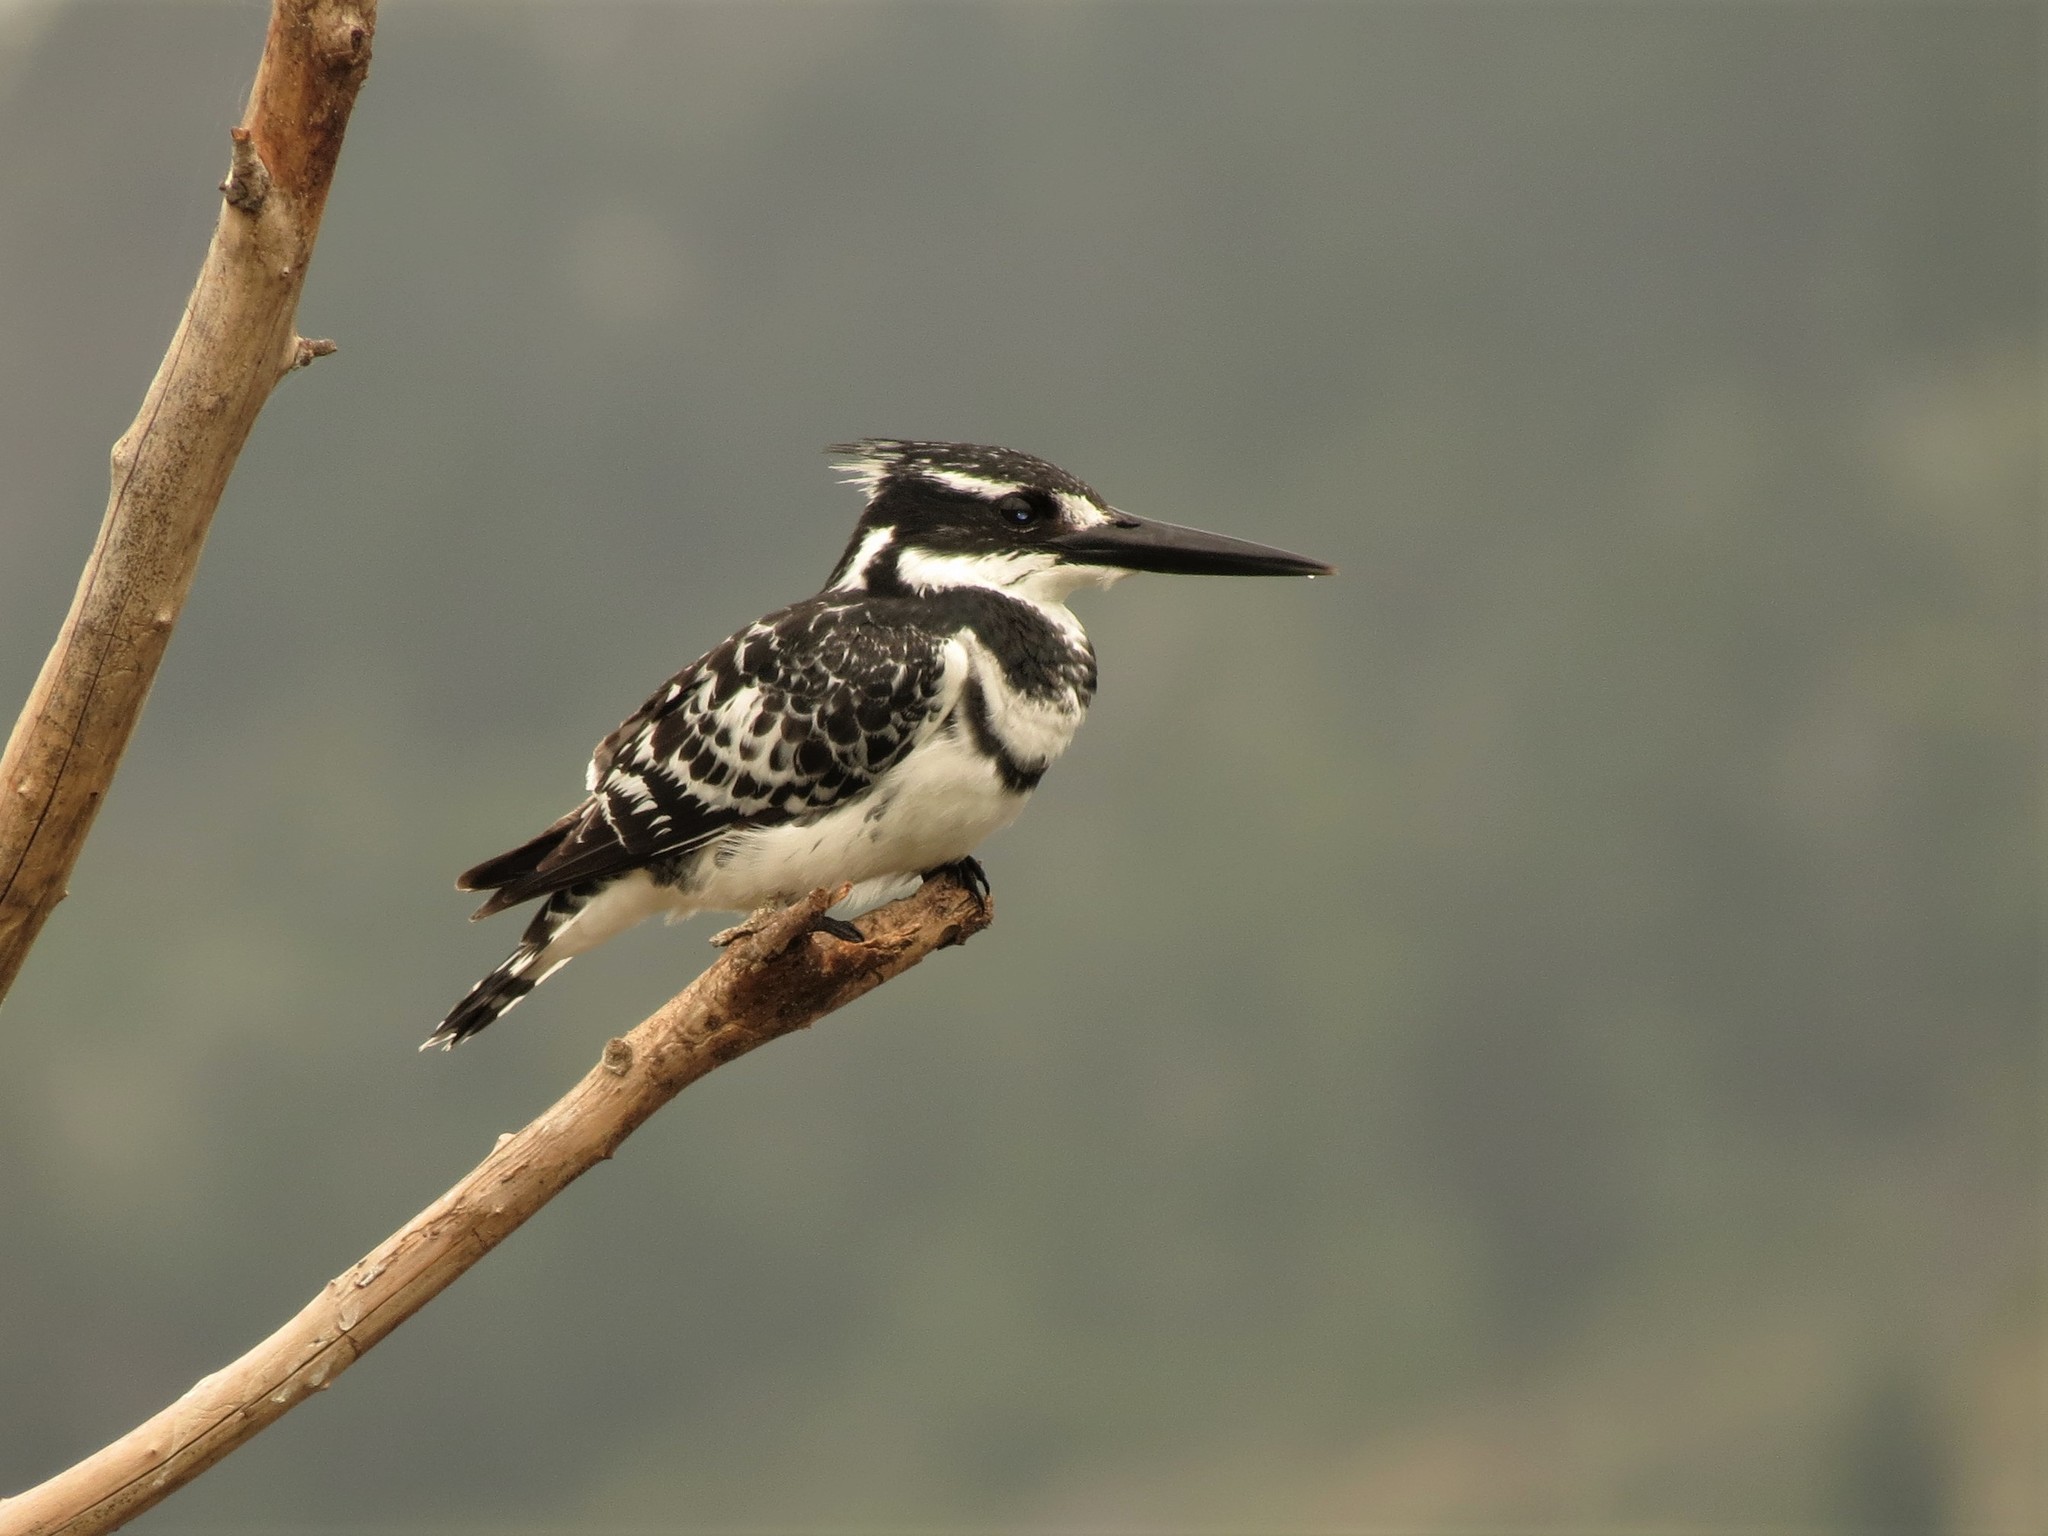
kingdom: Animalia
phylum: Chordata
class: Aves
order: Coraciiformes
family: Alcedinidae
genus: Ceryle
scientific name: Ceryle rudis
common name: Pied kingfisher
